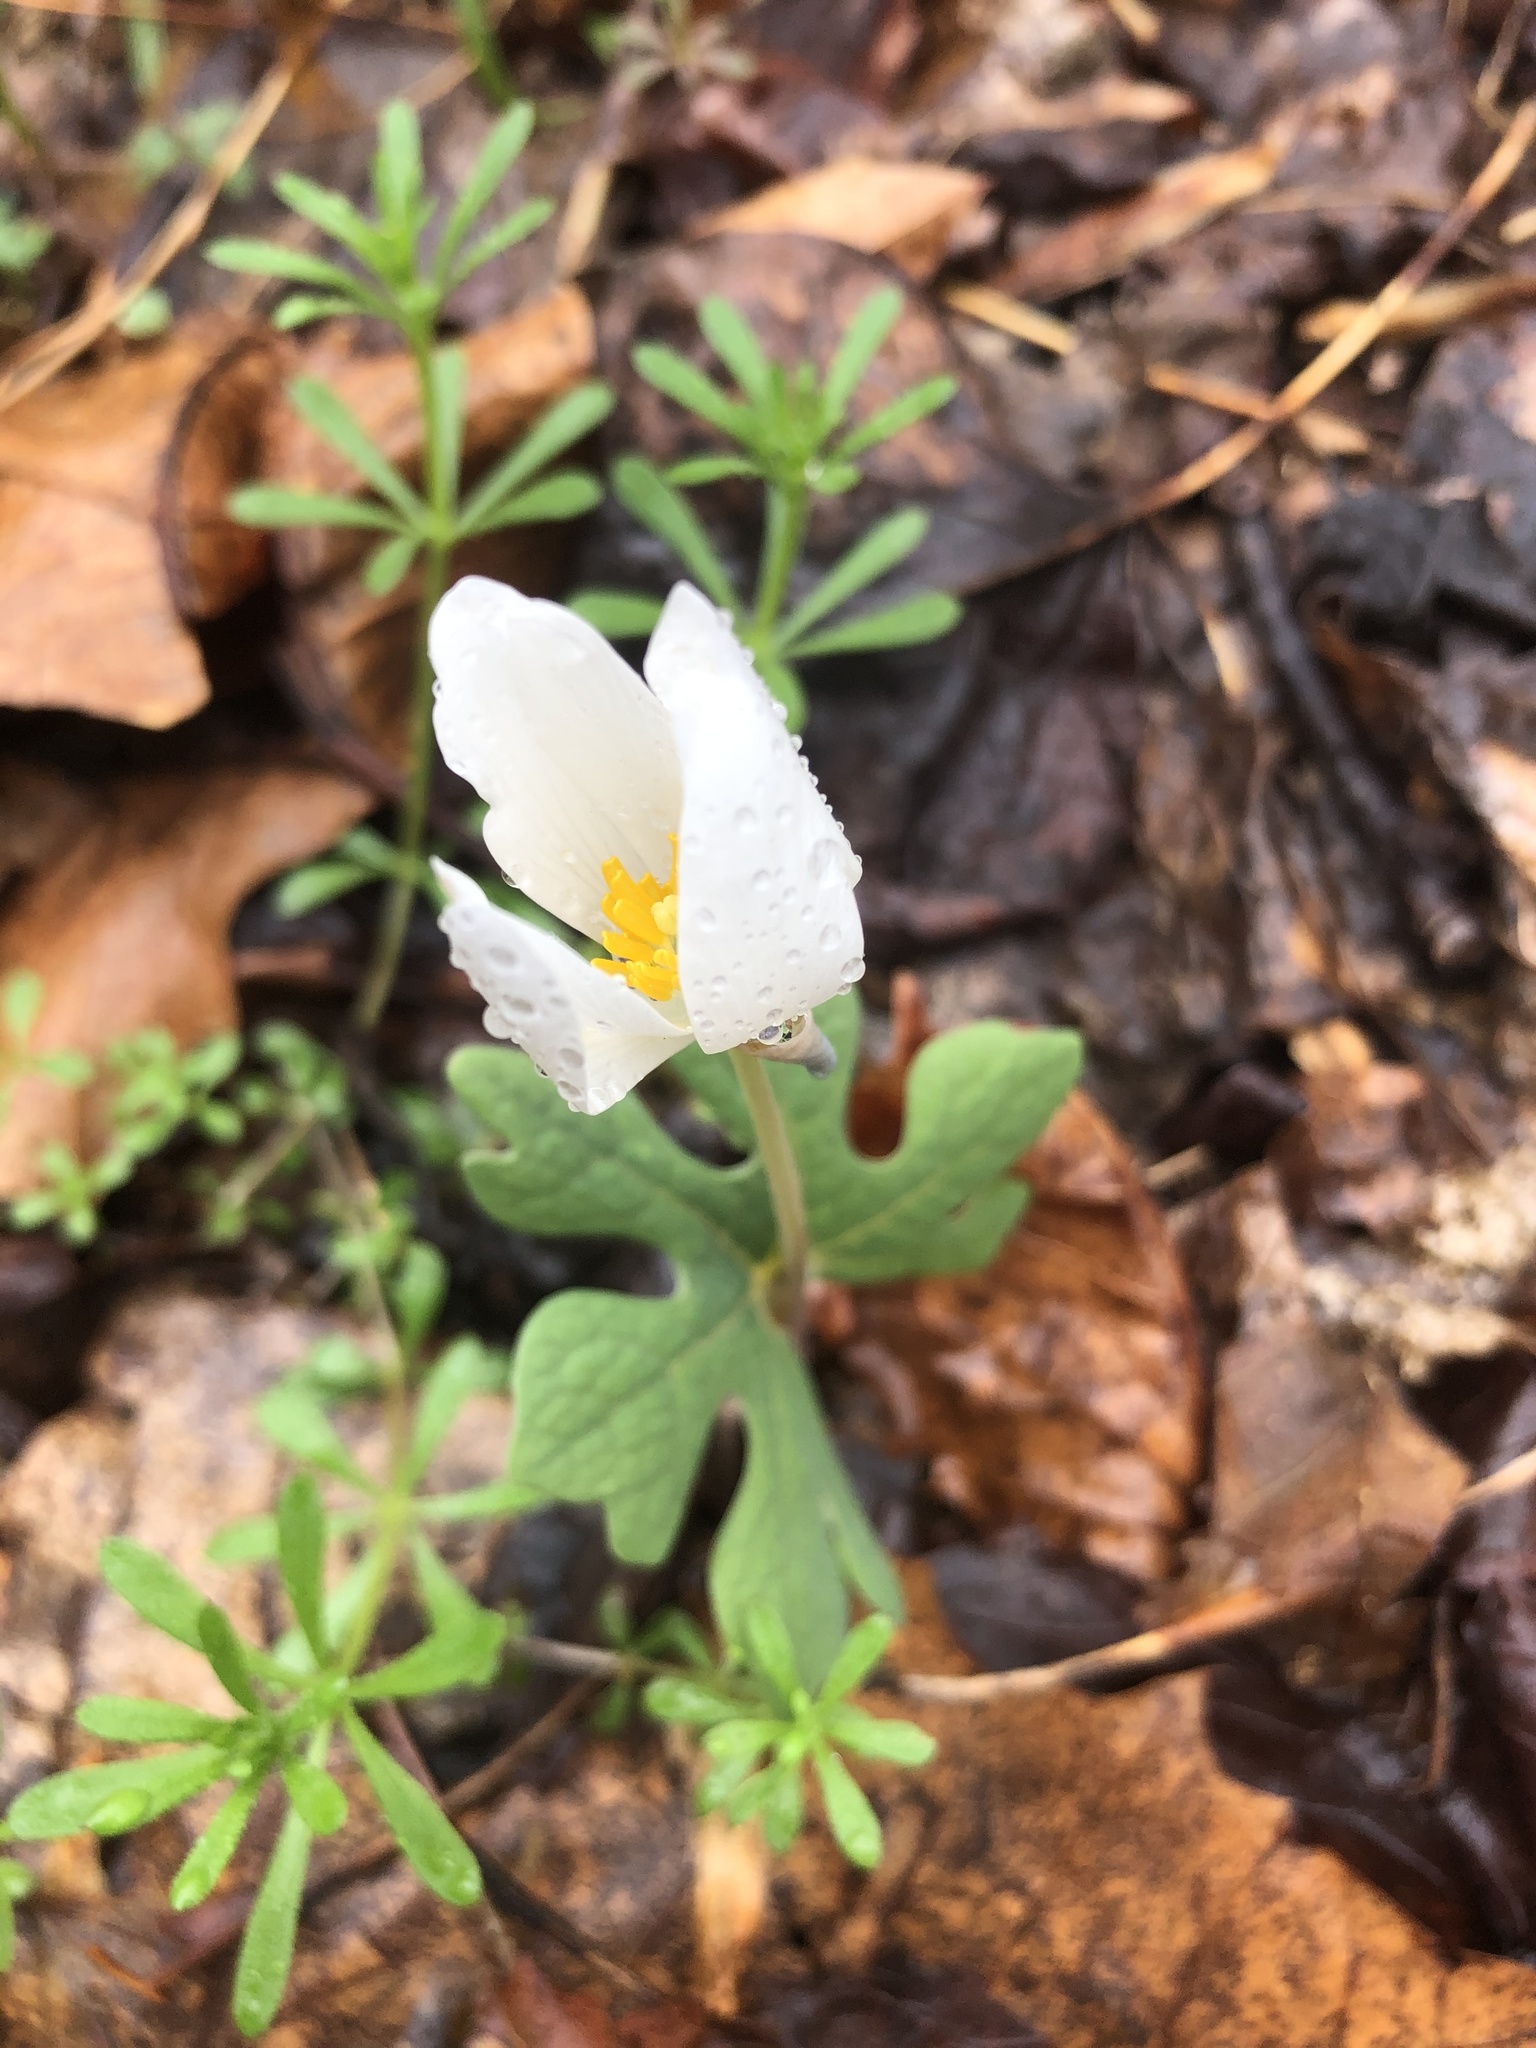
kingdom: Plantae
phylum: Tracheophyta
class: Magnoliopsida
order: Ranunculales
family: Papaveraceae
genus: Sanguinaria
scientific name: Sanguinaria canadensis
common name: Bloodroot
